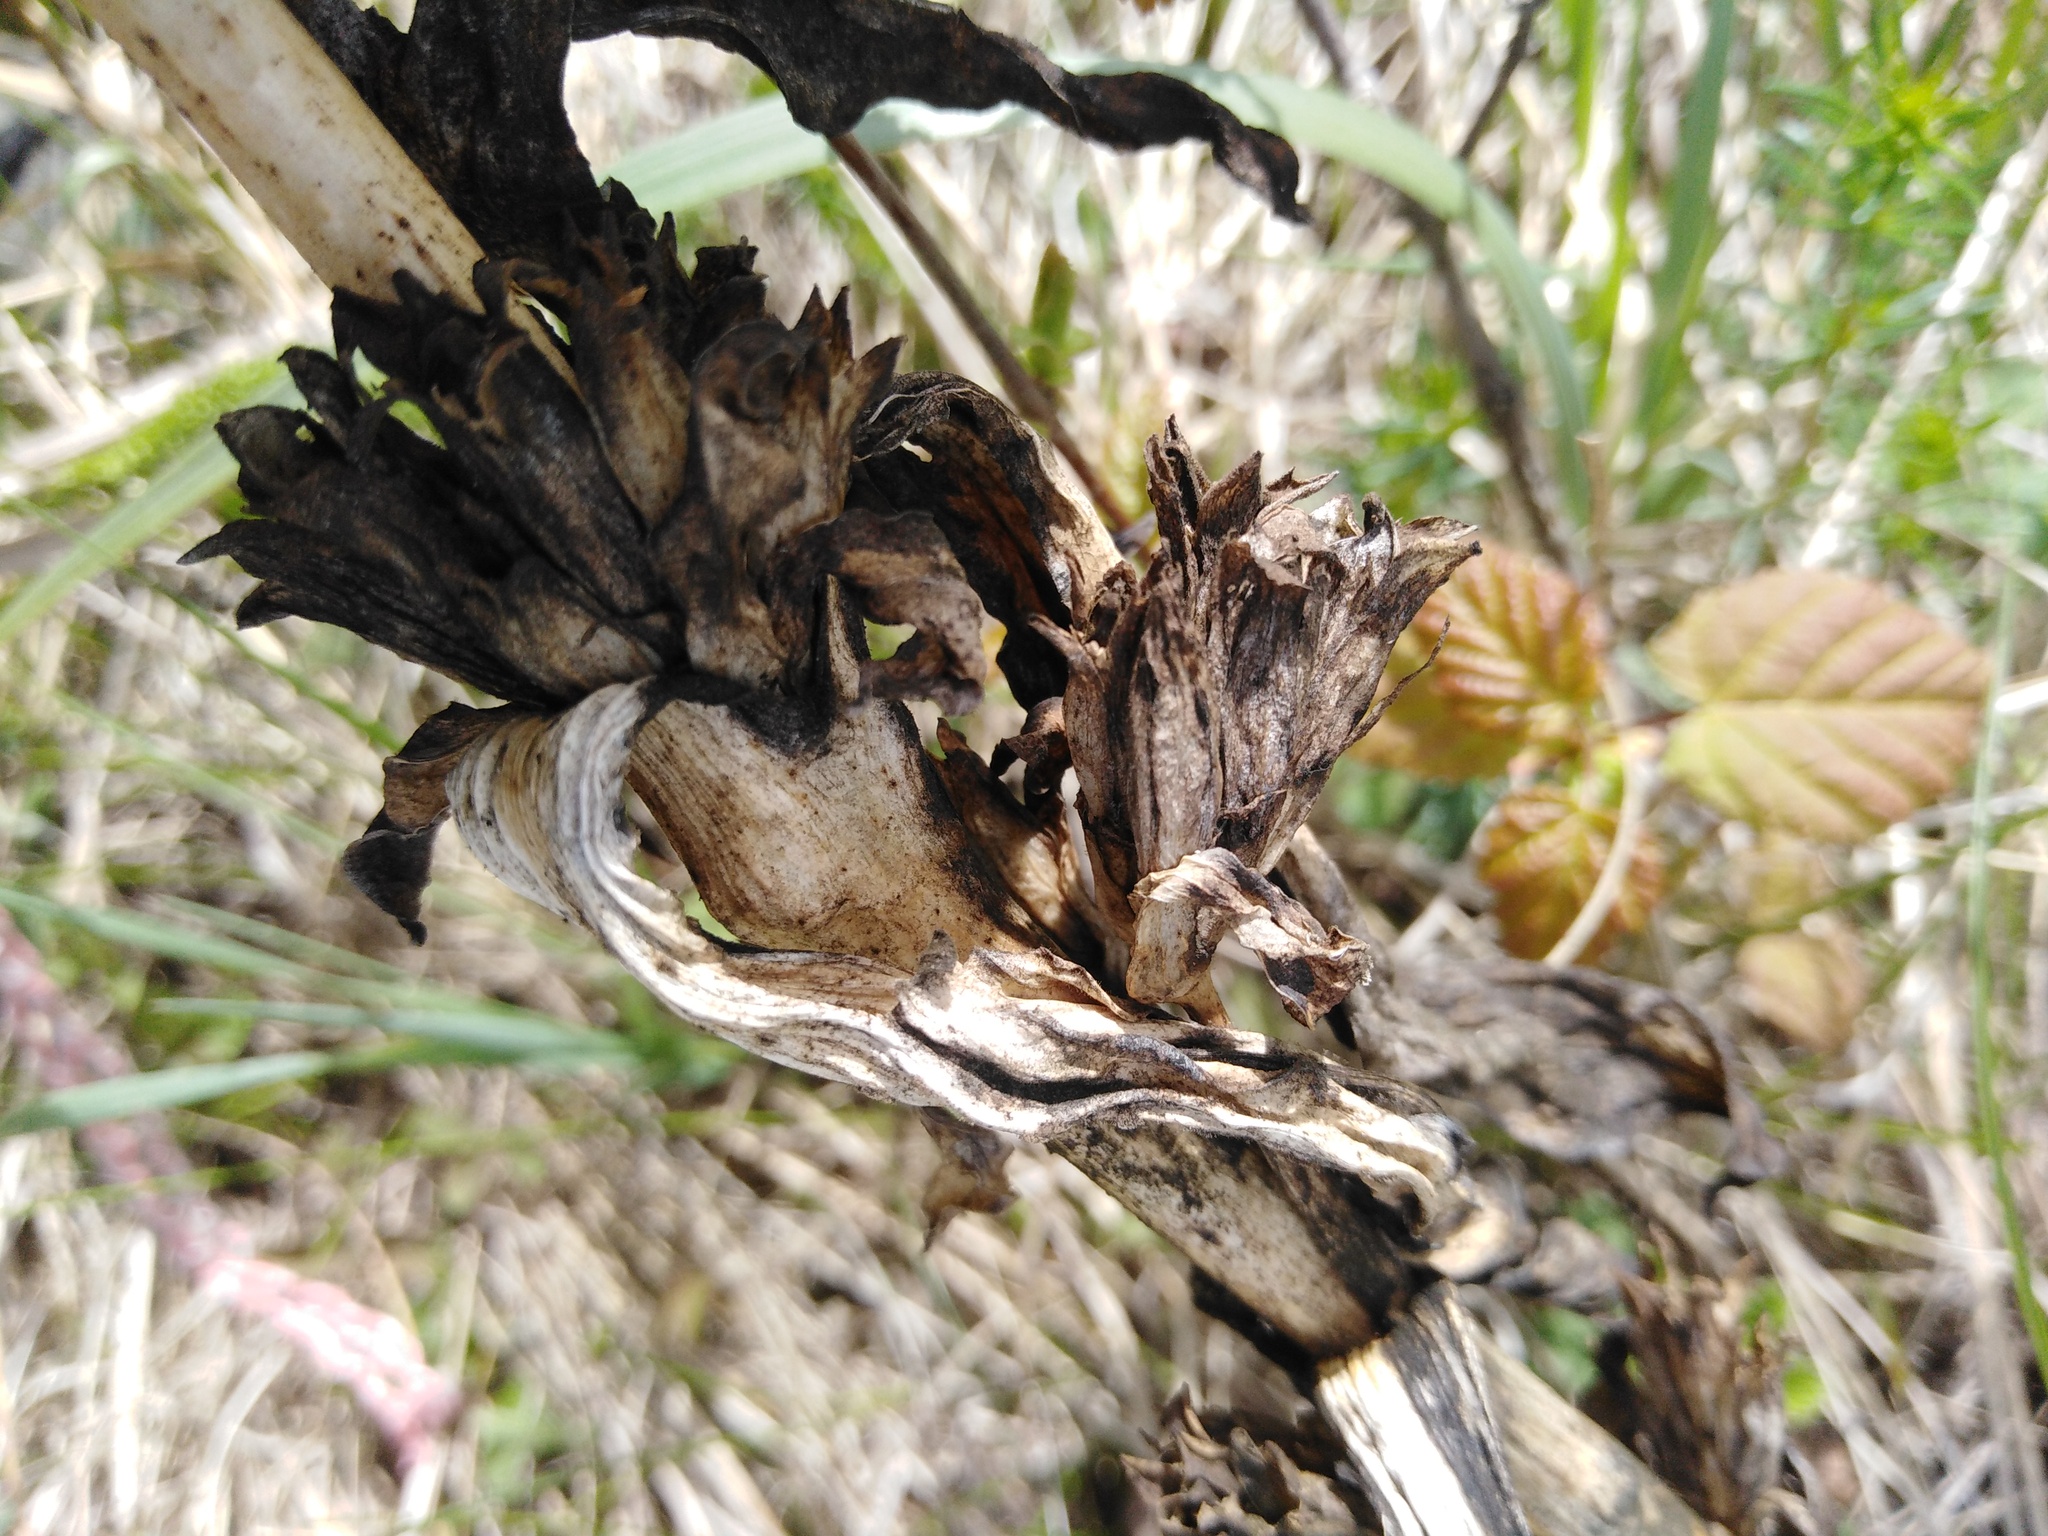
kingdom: Plantae
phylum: Tracheophyta
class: Magnoliopsida
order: Gentianales
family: Gentianaceae
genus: Gentiana
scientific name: Gentiana cruciata
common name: Cross gentian
